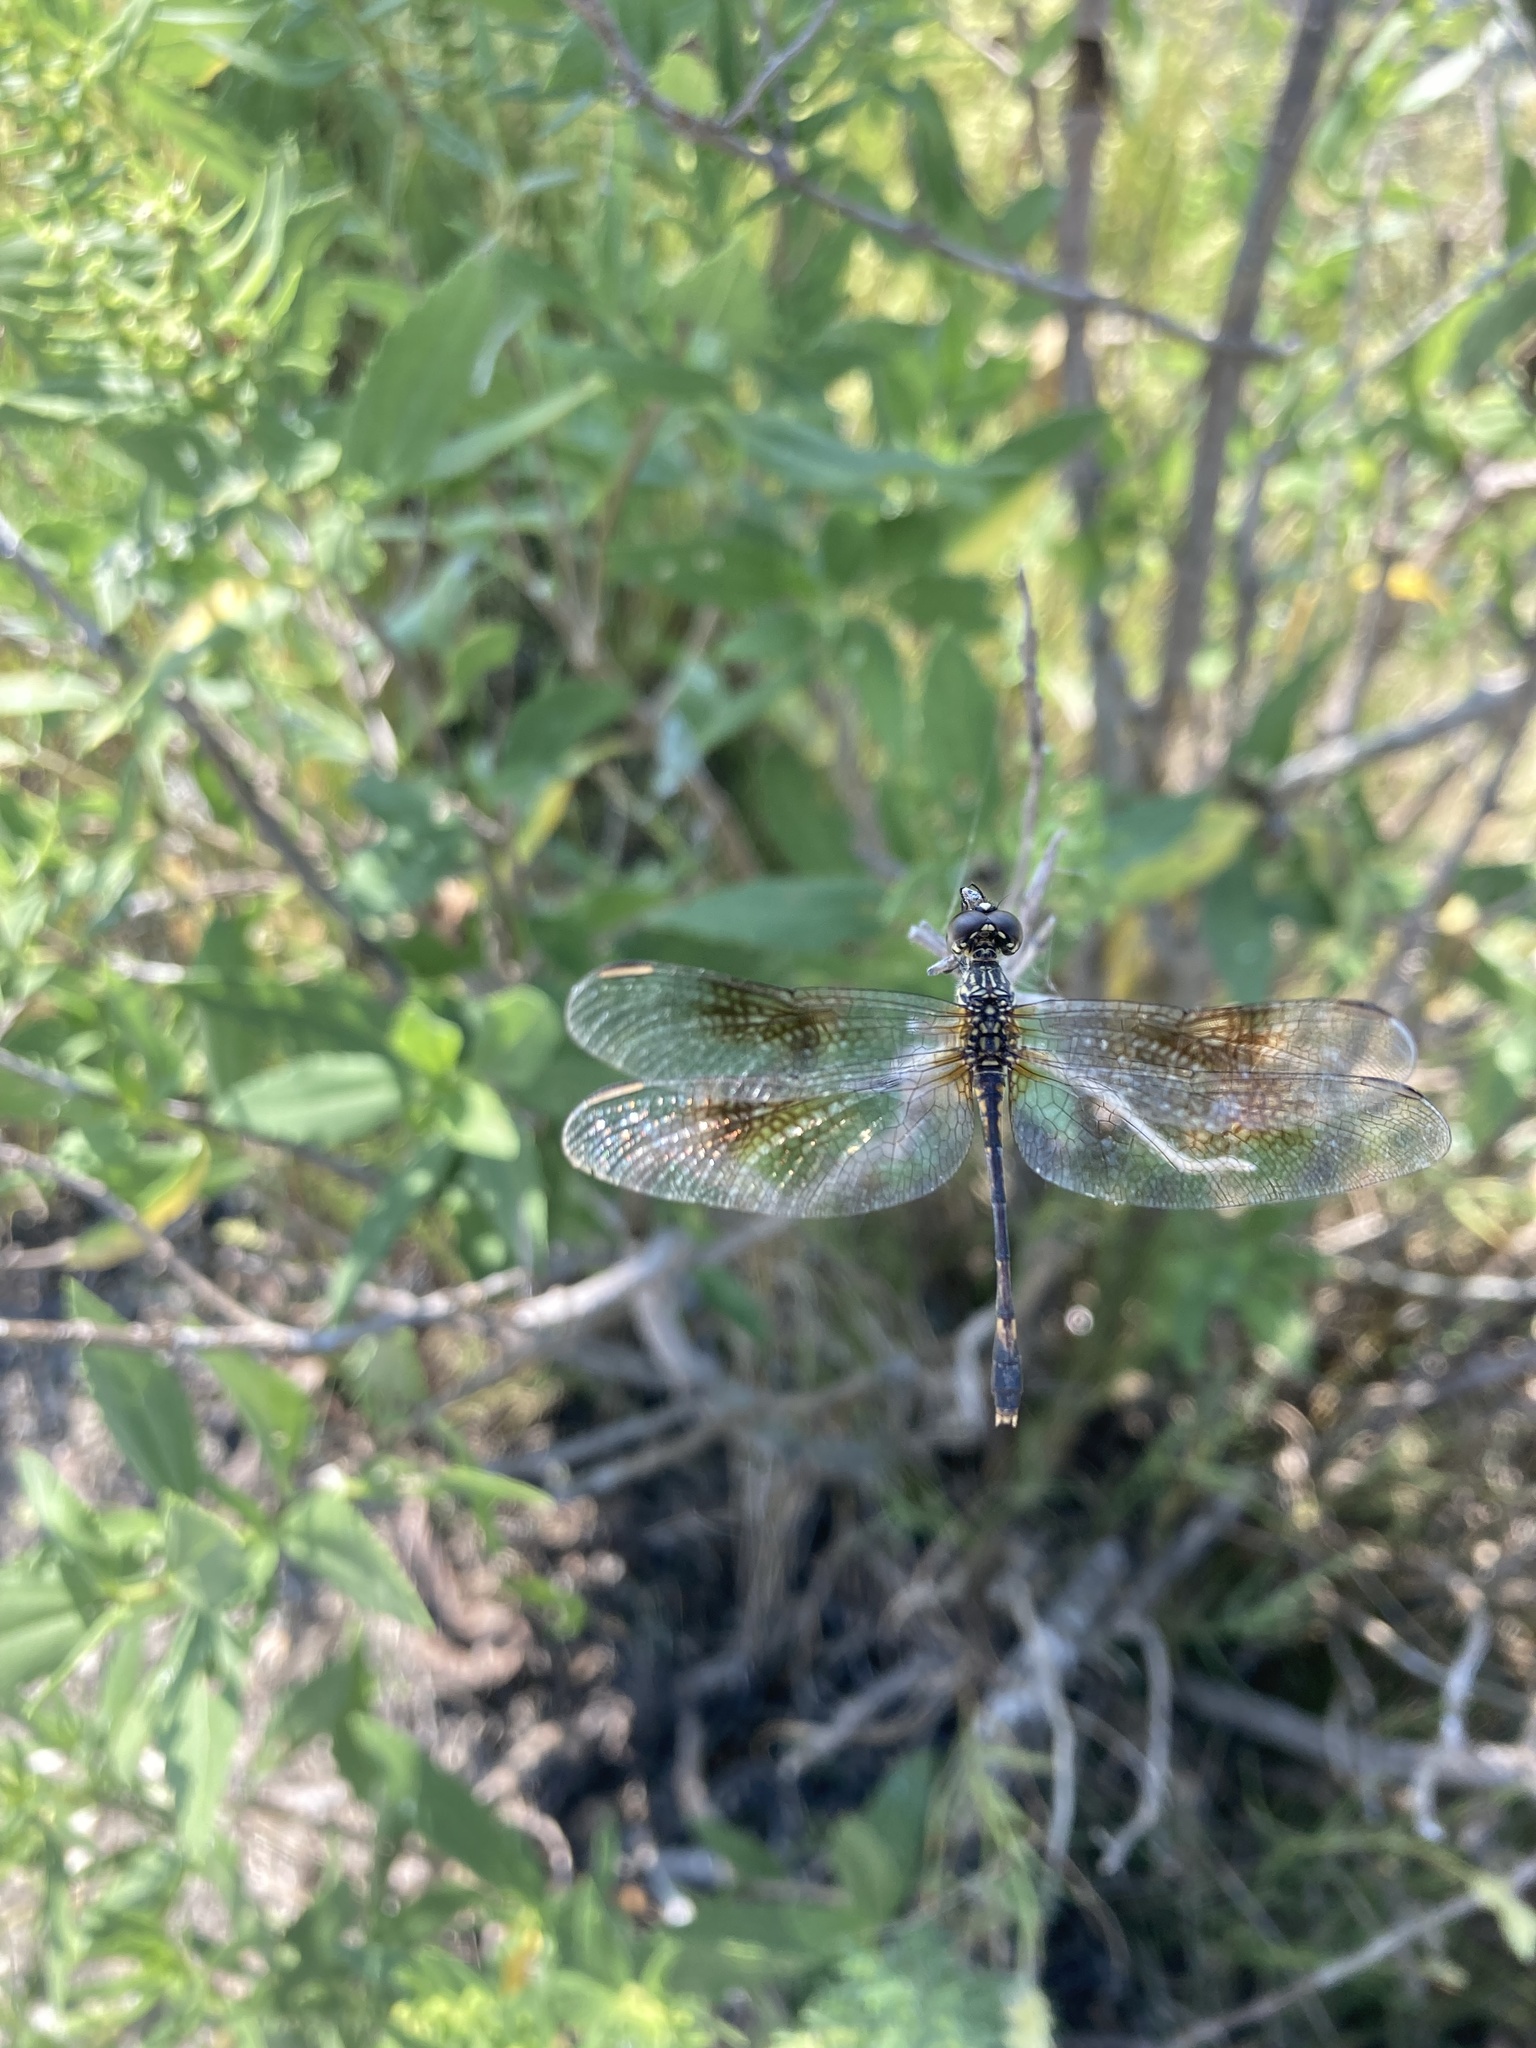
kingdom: Animalia
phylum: Arthropoda
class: Insecta
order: Odonata
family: Libellulidae
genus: Erythrodiplax
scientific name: Erythrodiplax berenice
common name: Seaside dragonlet
